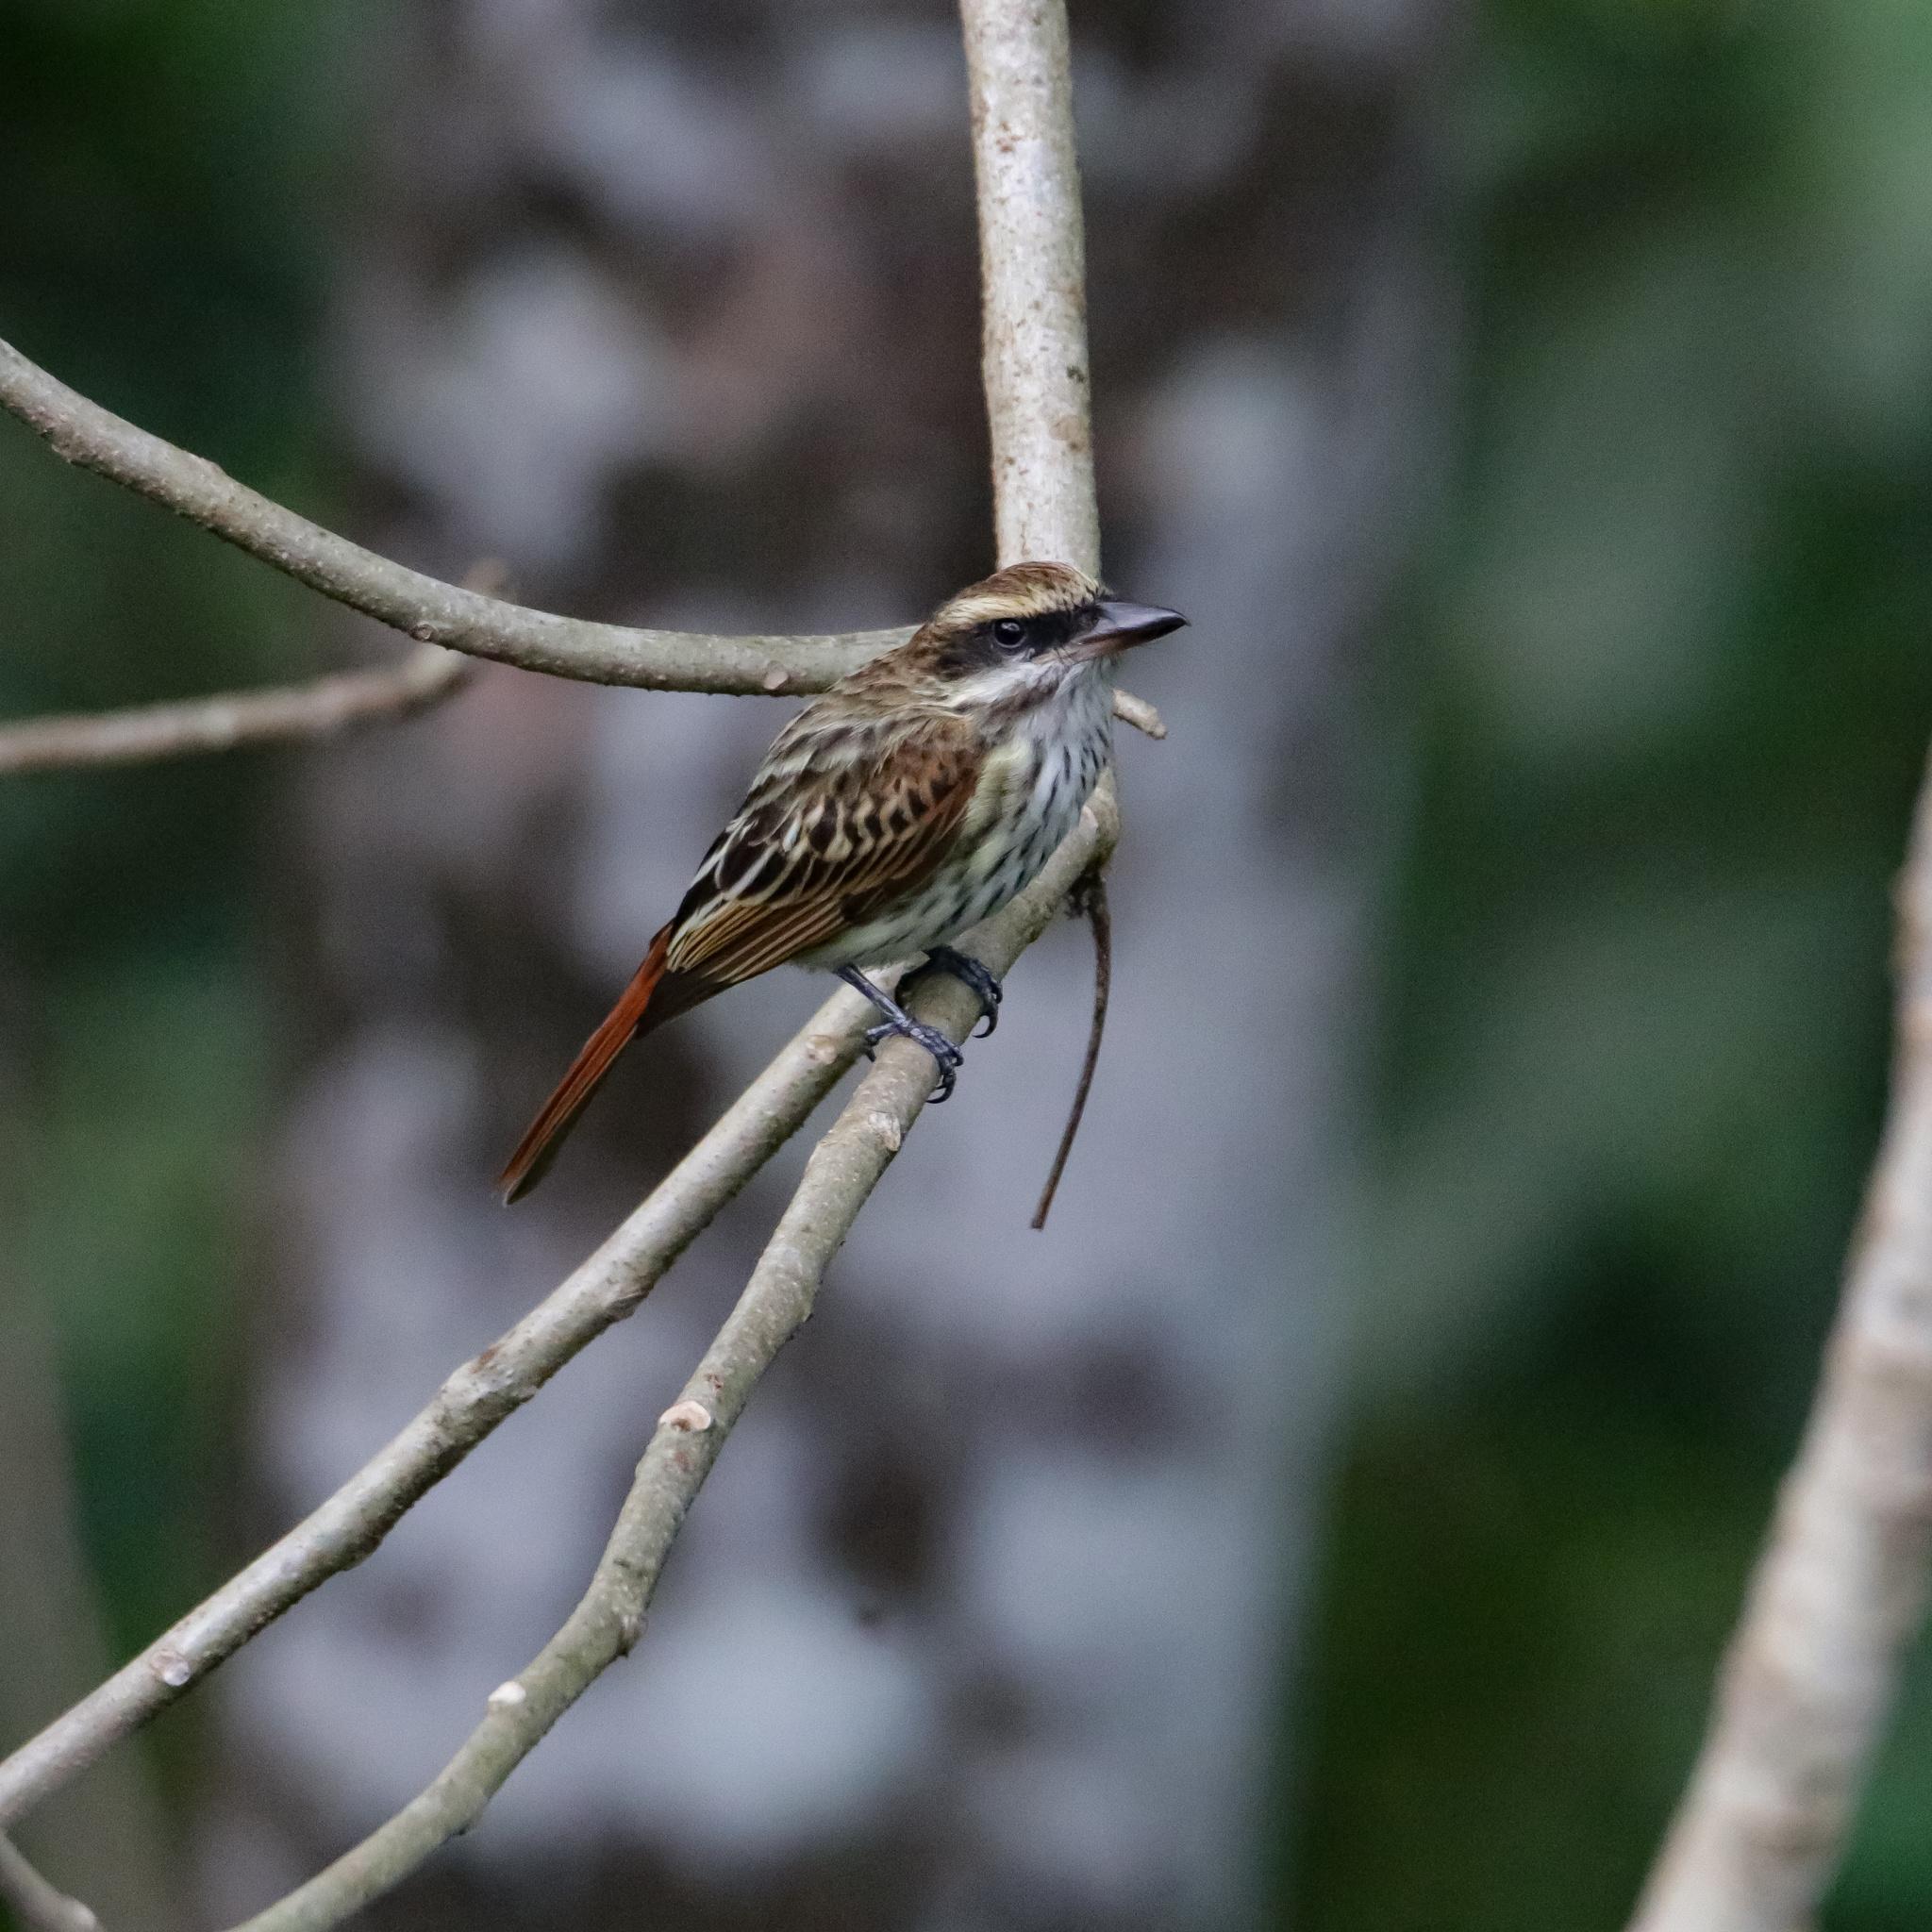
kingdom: Animalia
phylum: Chordata
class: Aves
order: Passeriformes
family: Tyrannidae
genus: Myiodynastes
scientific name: Myiodynastes maculatus
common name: Streaked flycatcher
